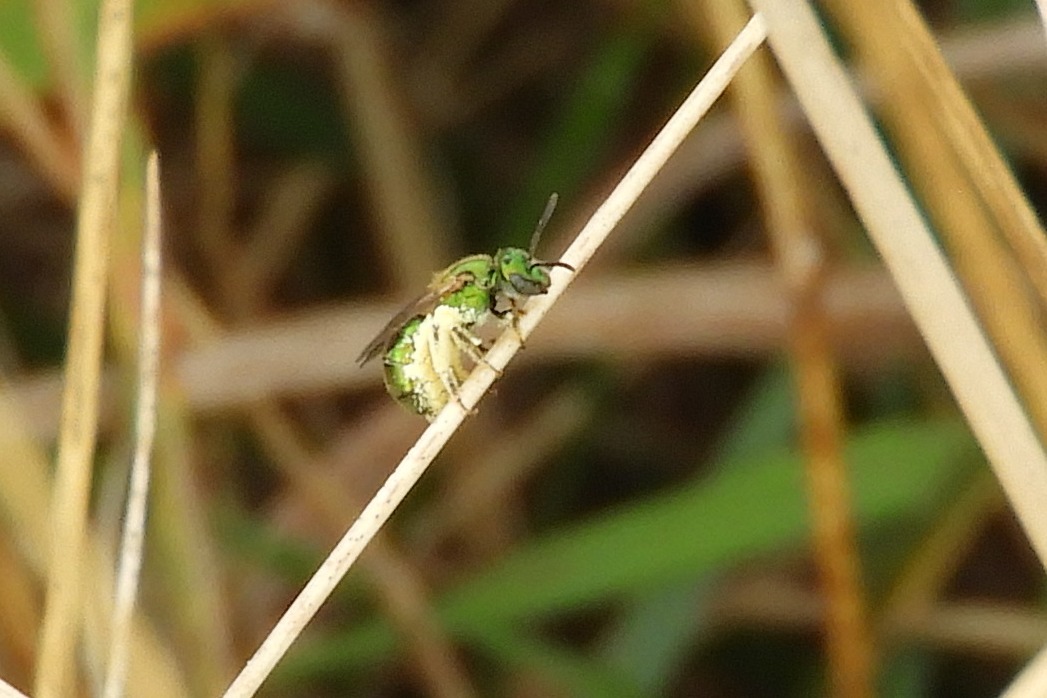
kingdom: Animalia
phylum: Arthropoda
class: Insecta
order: Hymenoptera
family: Halictidae
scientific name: Halictidae
